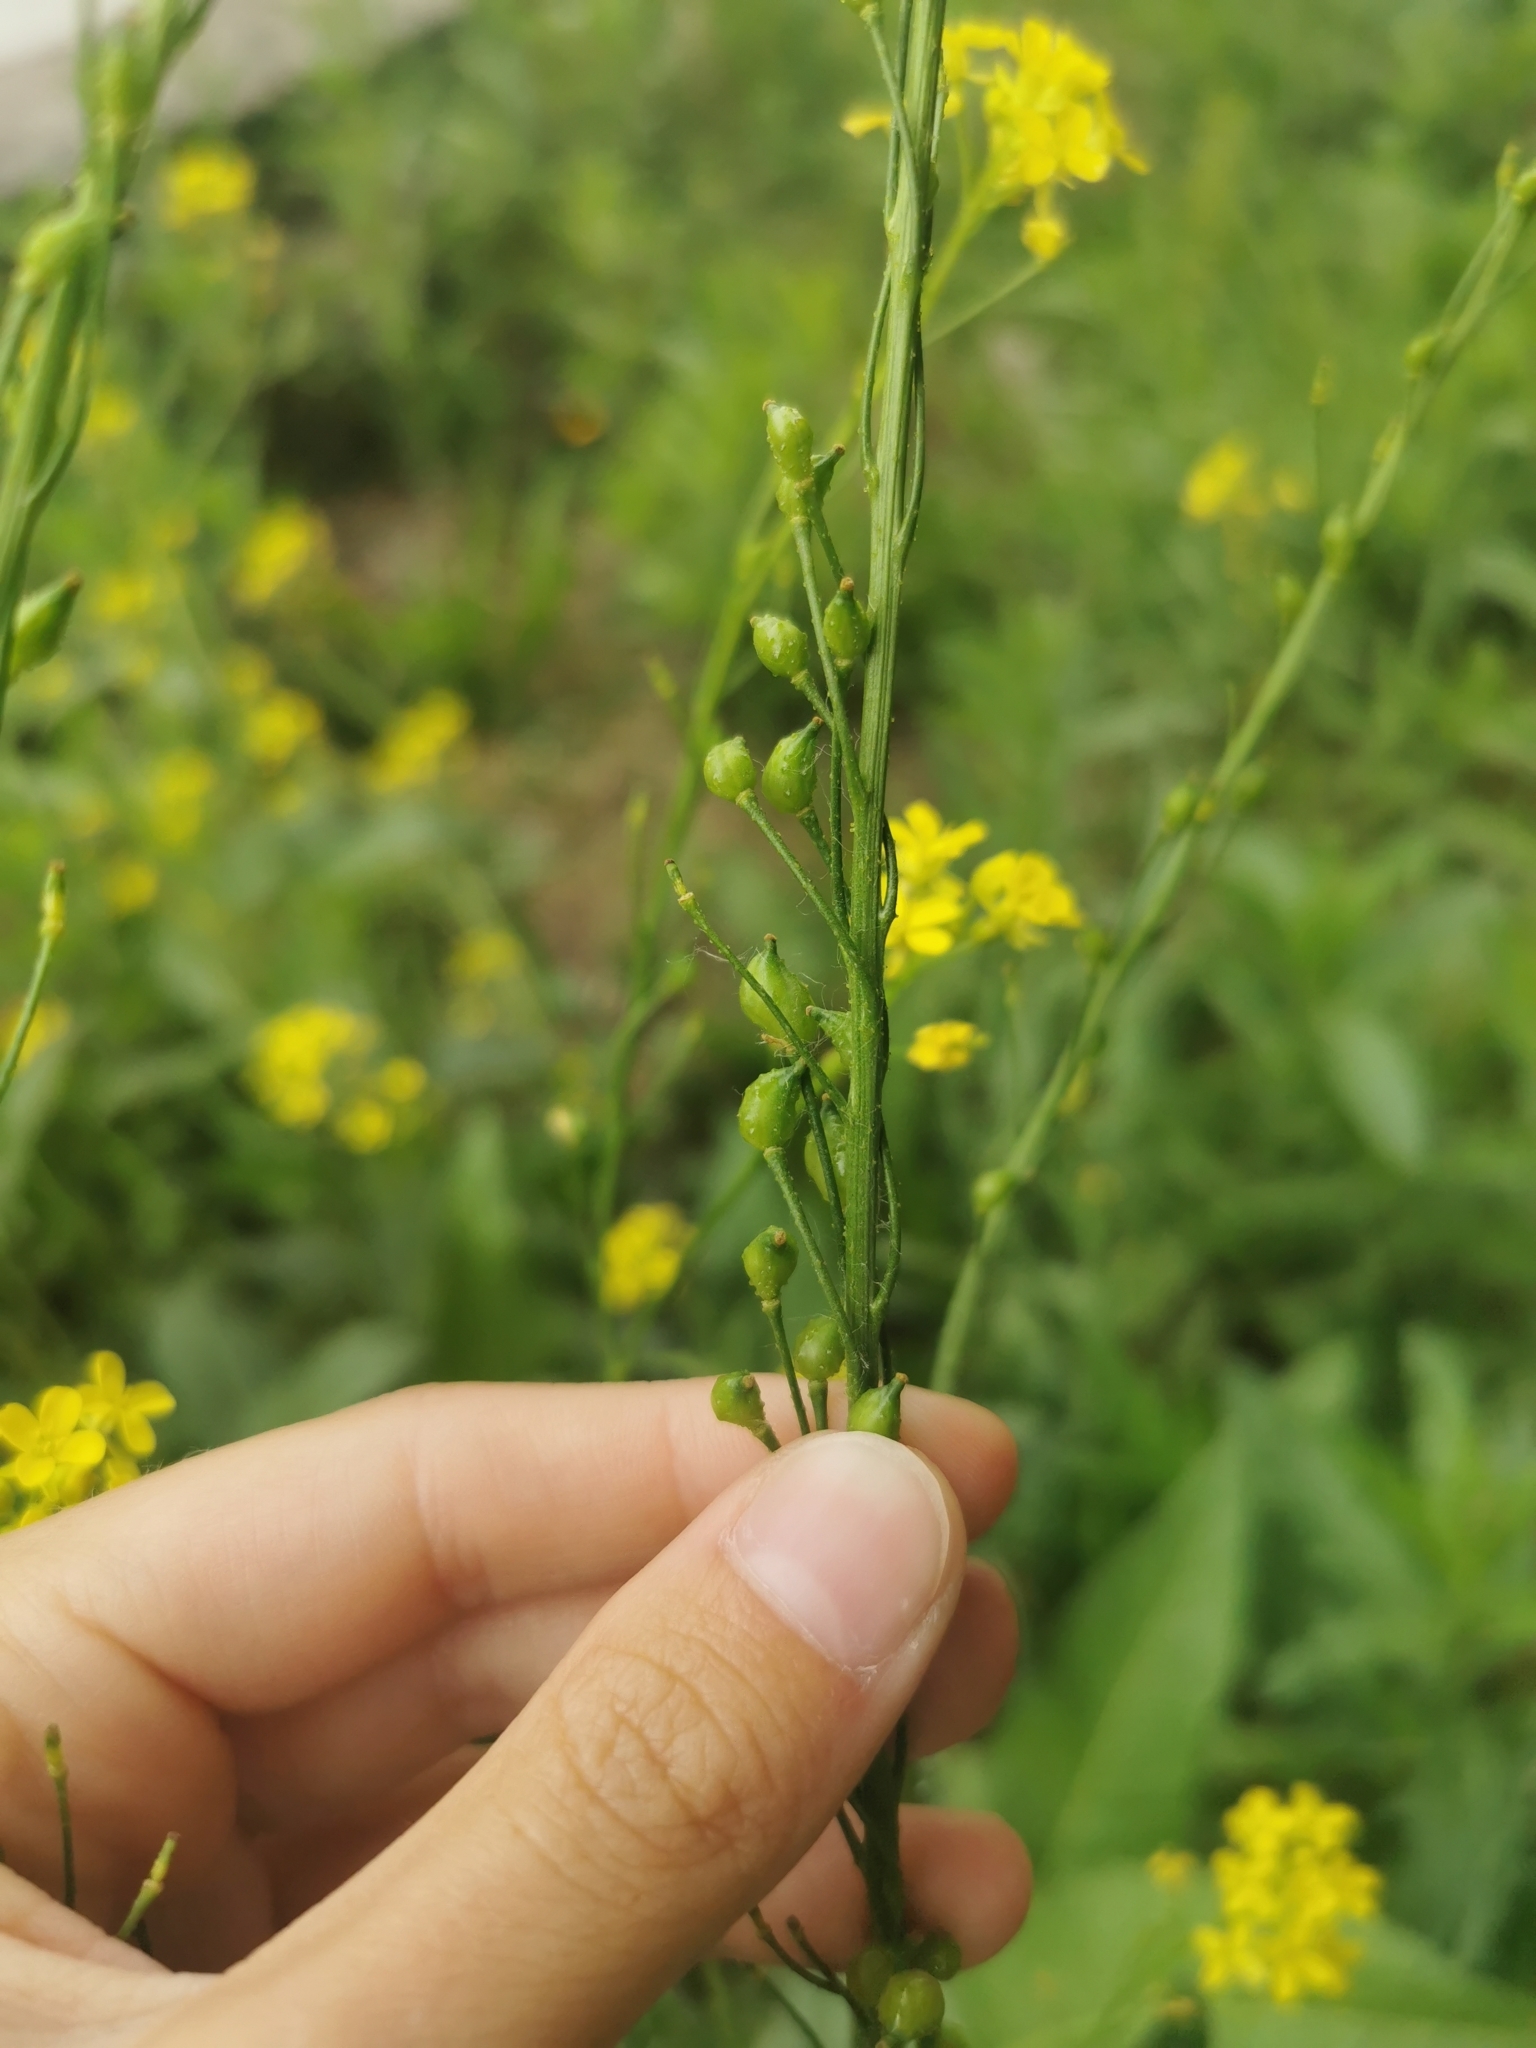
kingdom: Plantae
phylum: Tracheophyta
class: Magnoliopsida
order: Brassicales
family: Brassicaceae
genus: Bunias
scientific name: Bunias orientalis
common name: Warty-cabbage
